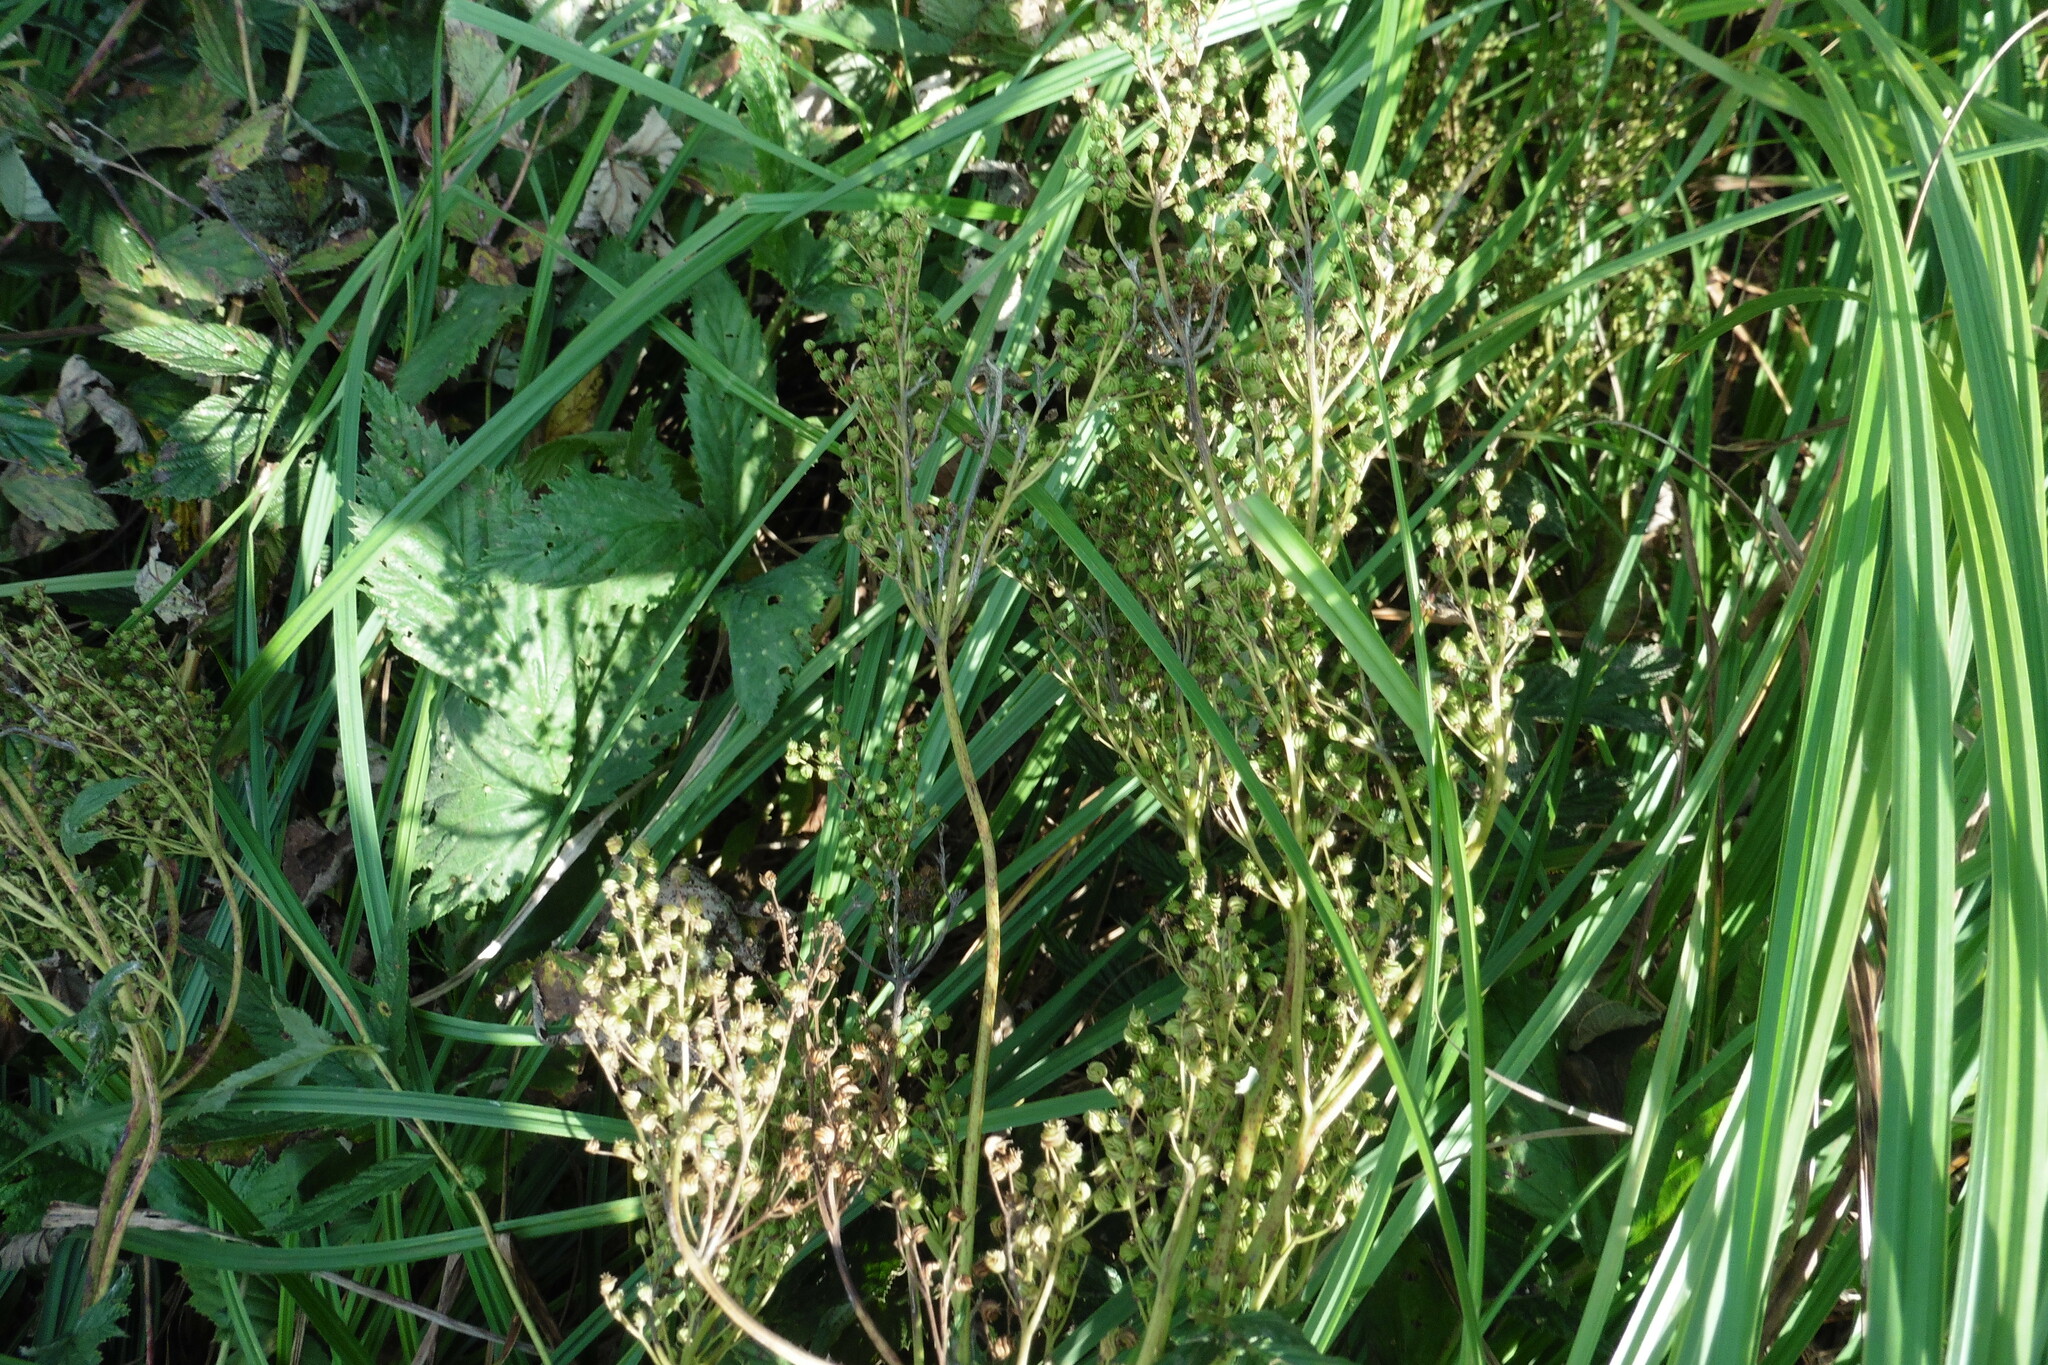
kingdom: Plantae
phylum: Tracheophyta
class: Magnoliopsida
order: Rosales
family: Rosaceae
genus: Filipendula
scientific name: Filipendula ulmaria
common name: Meadowsweet
